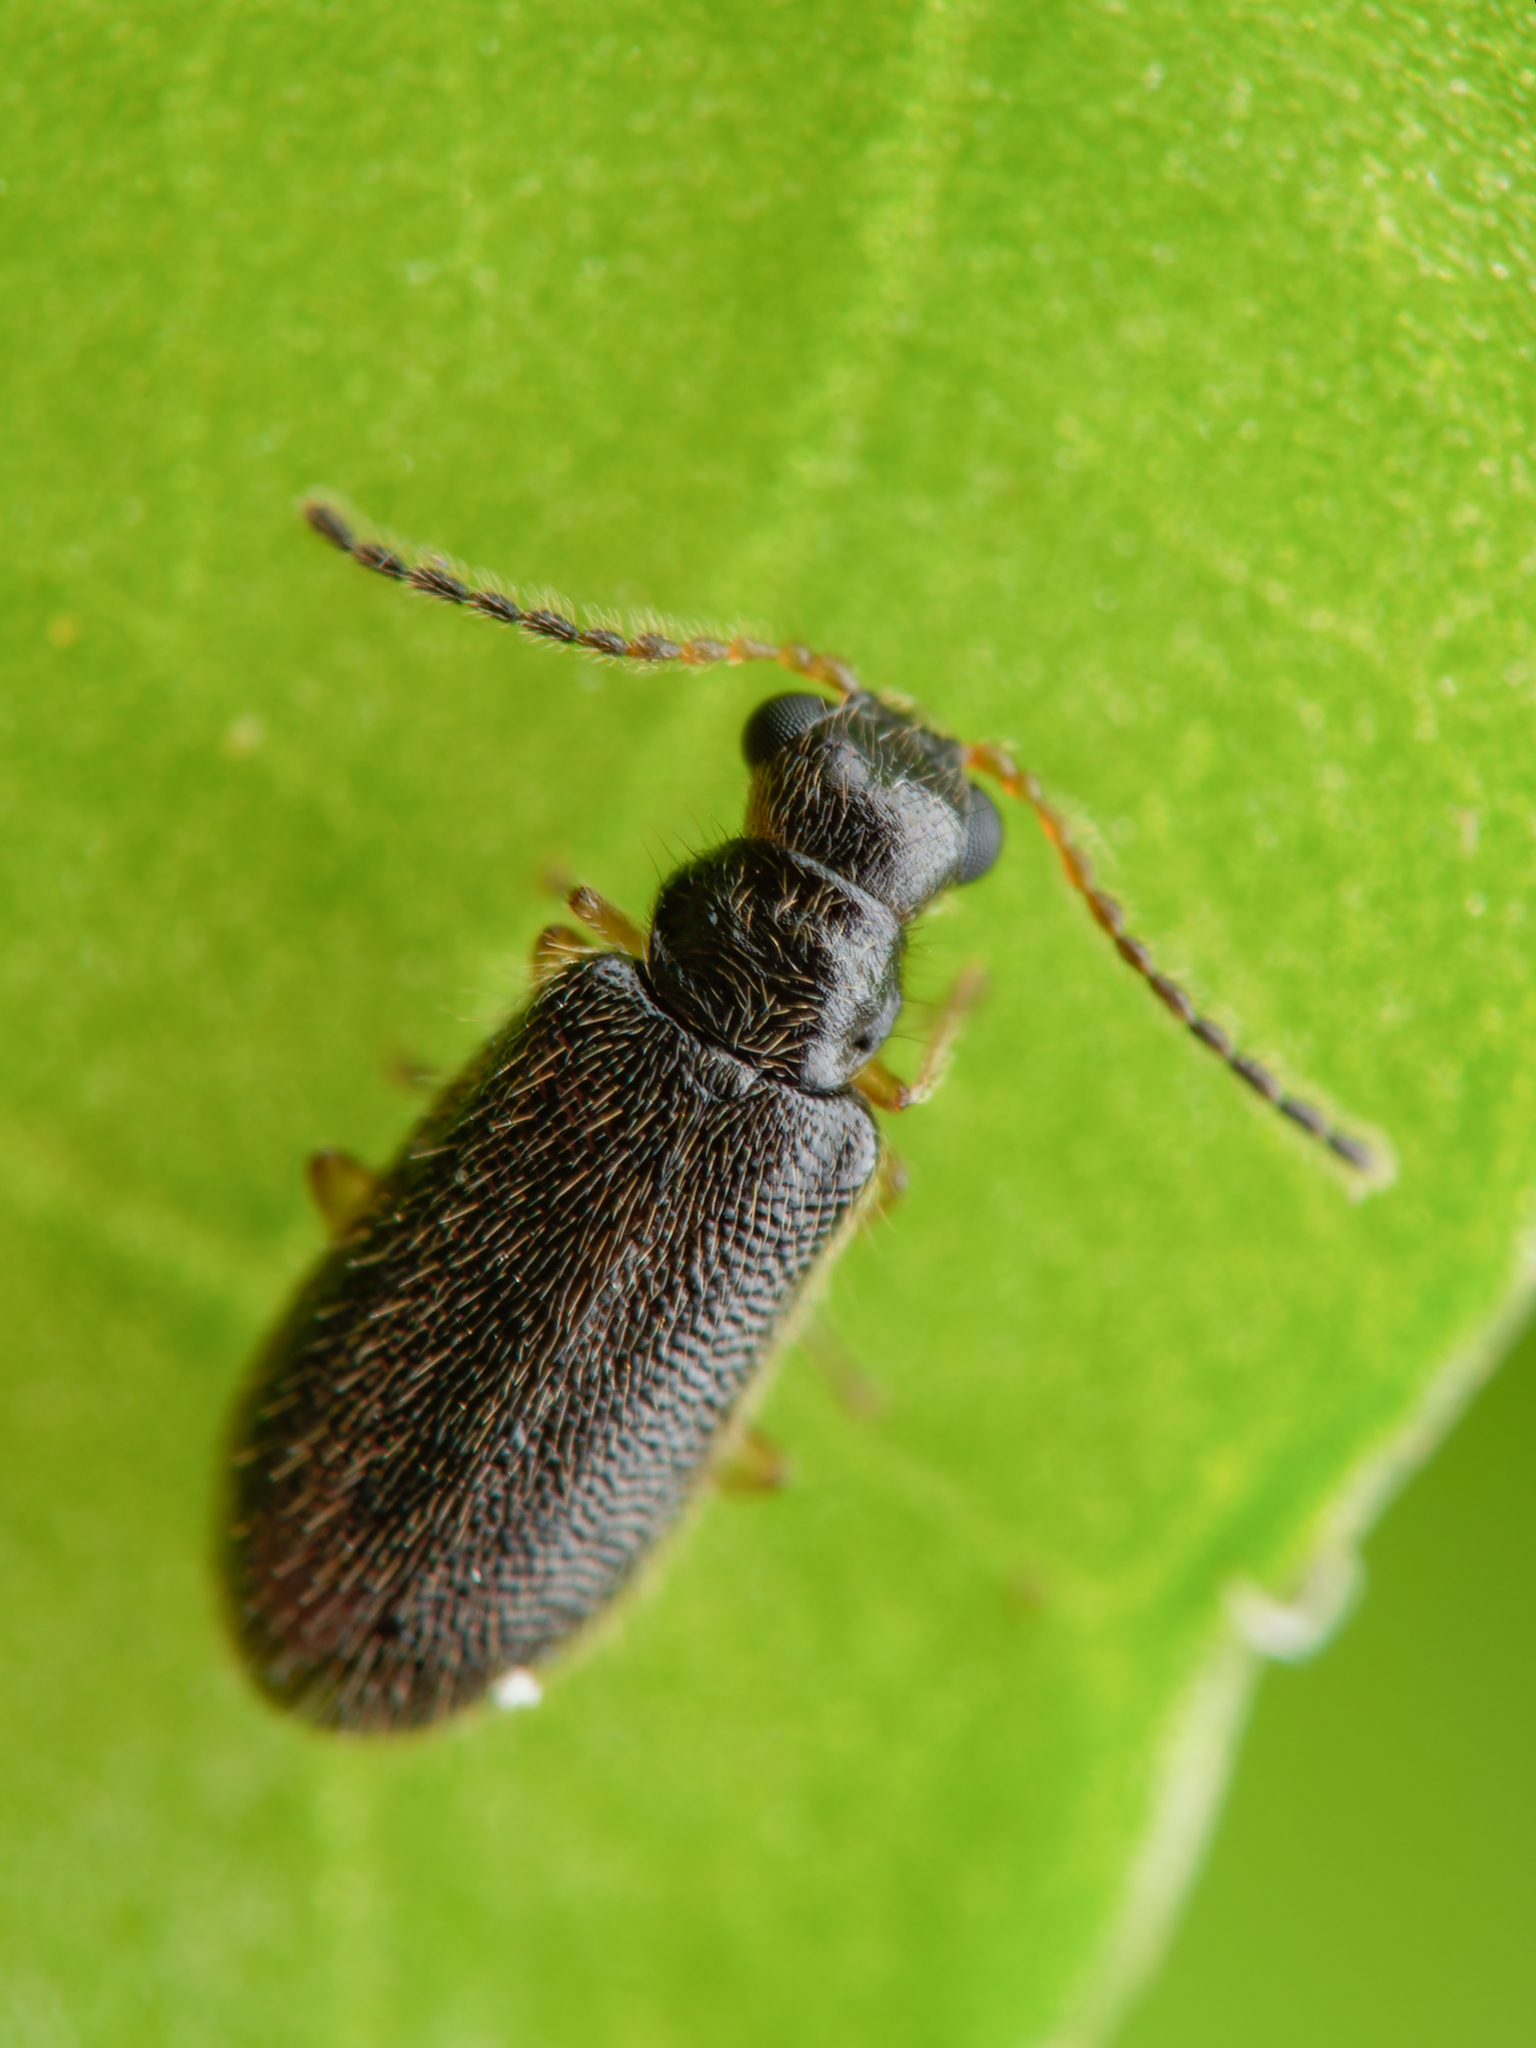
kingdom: Animalia
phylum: Arthropoda
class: Insecta
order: Coleoptera
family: Melyridae
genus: Halyles
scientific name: Halyles
